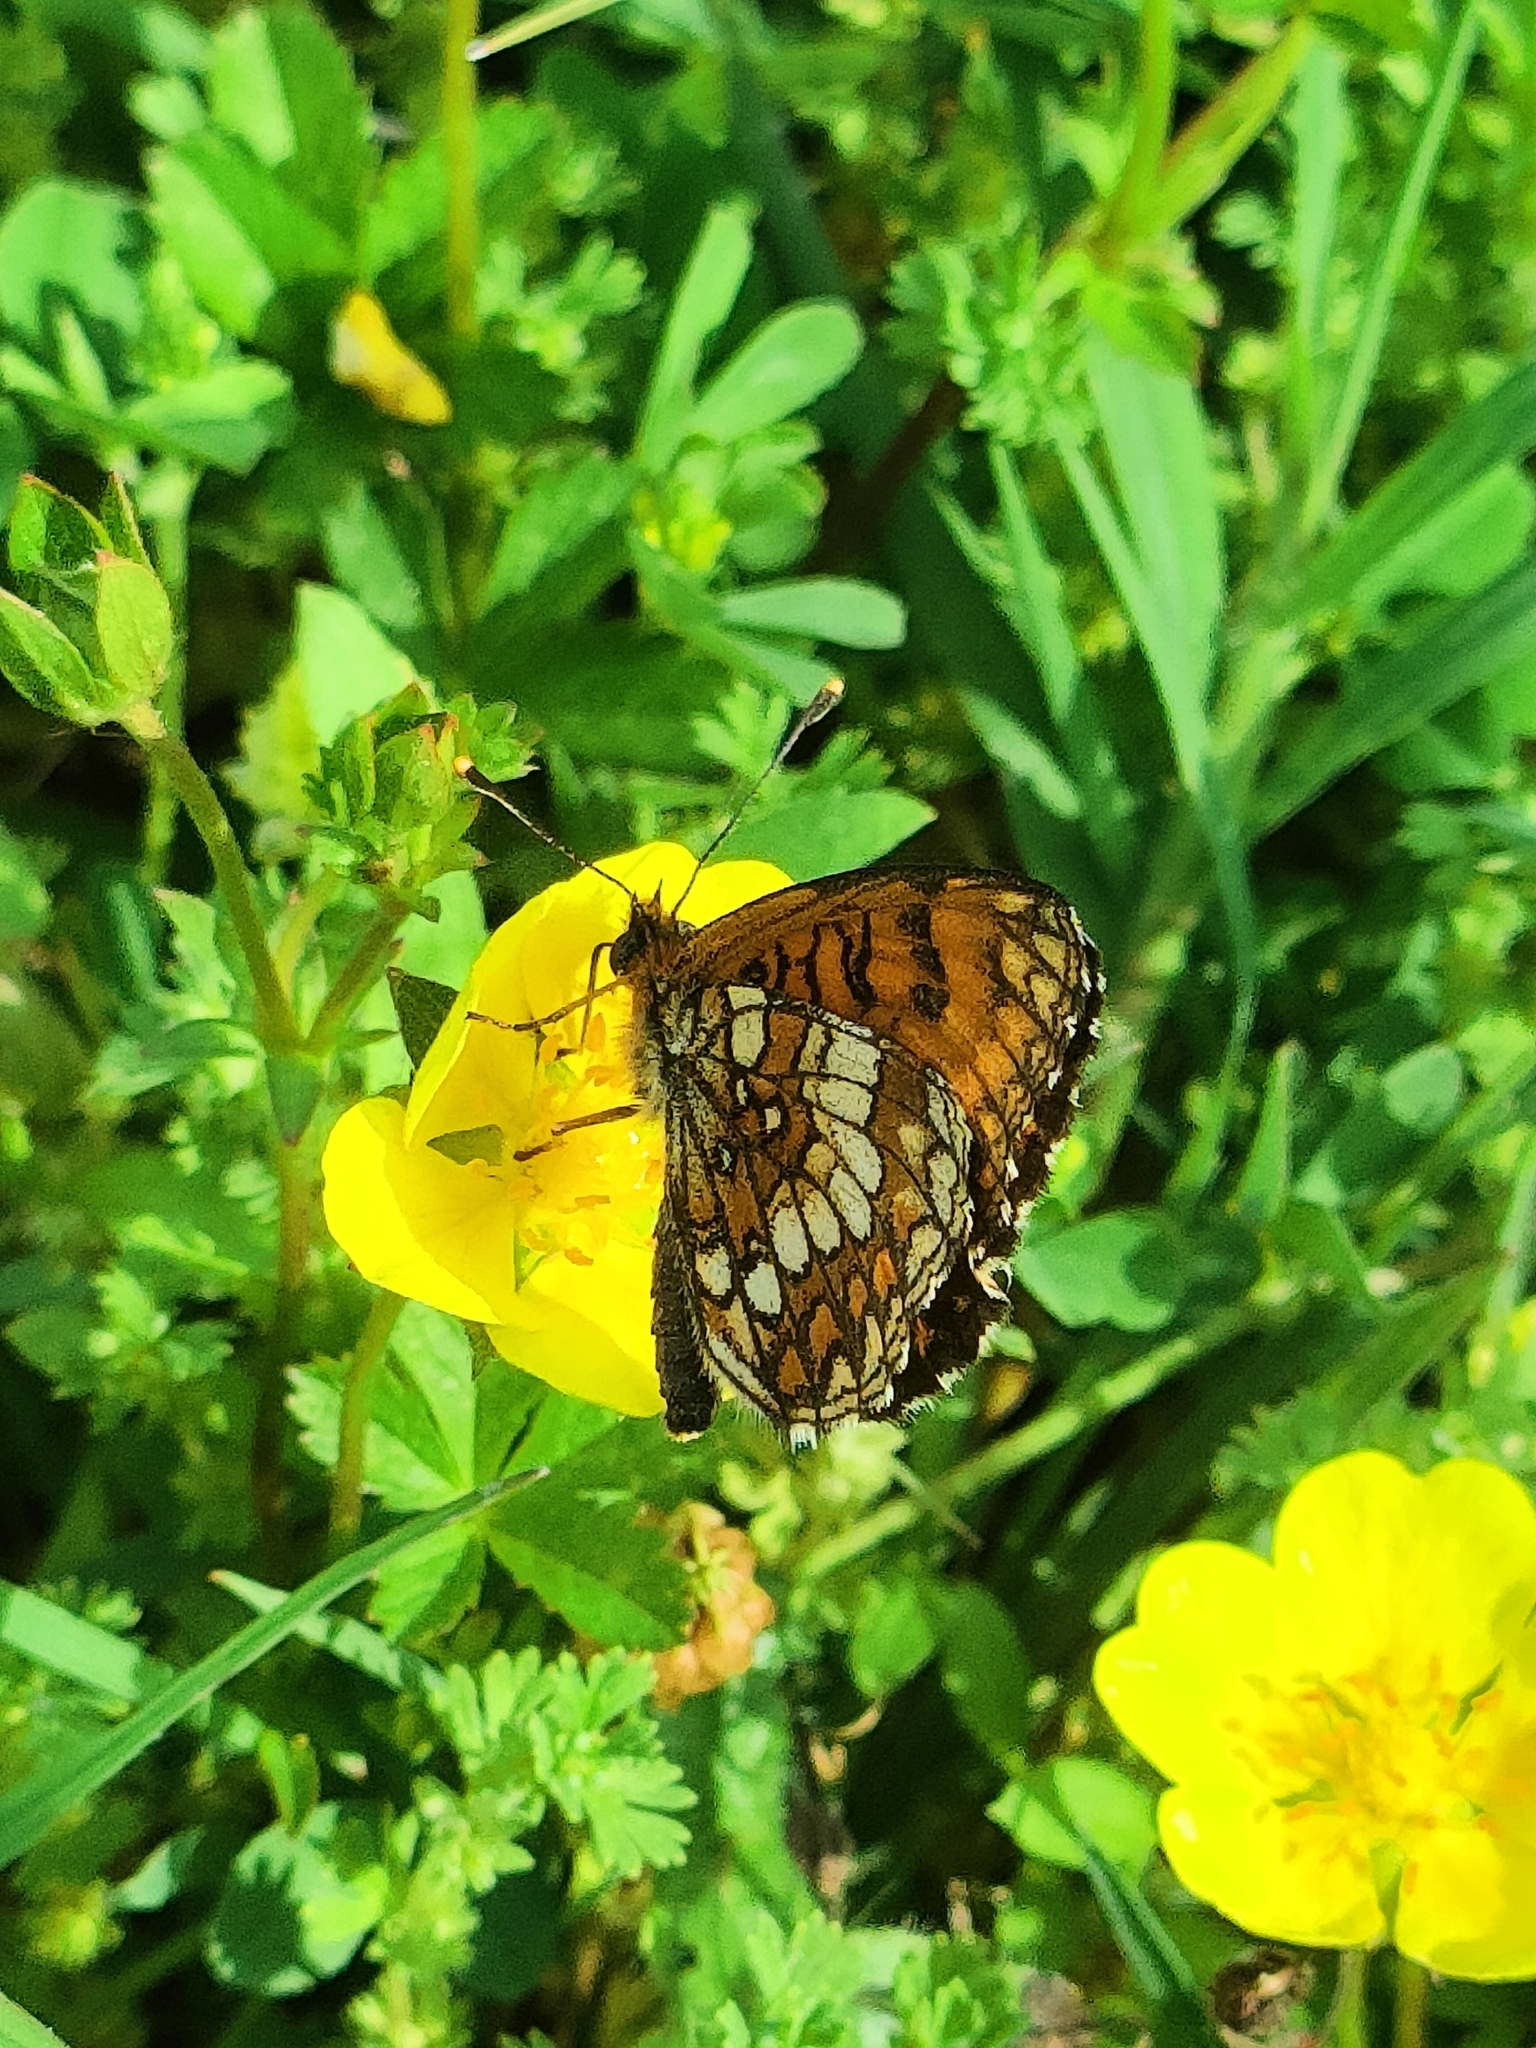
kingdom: Animalia
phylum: Arthropoda
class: Insecta
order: Lepidoptera
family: Nymphalidae
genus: Mellicta
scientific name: Mellicta athalia
